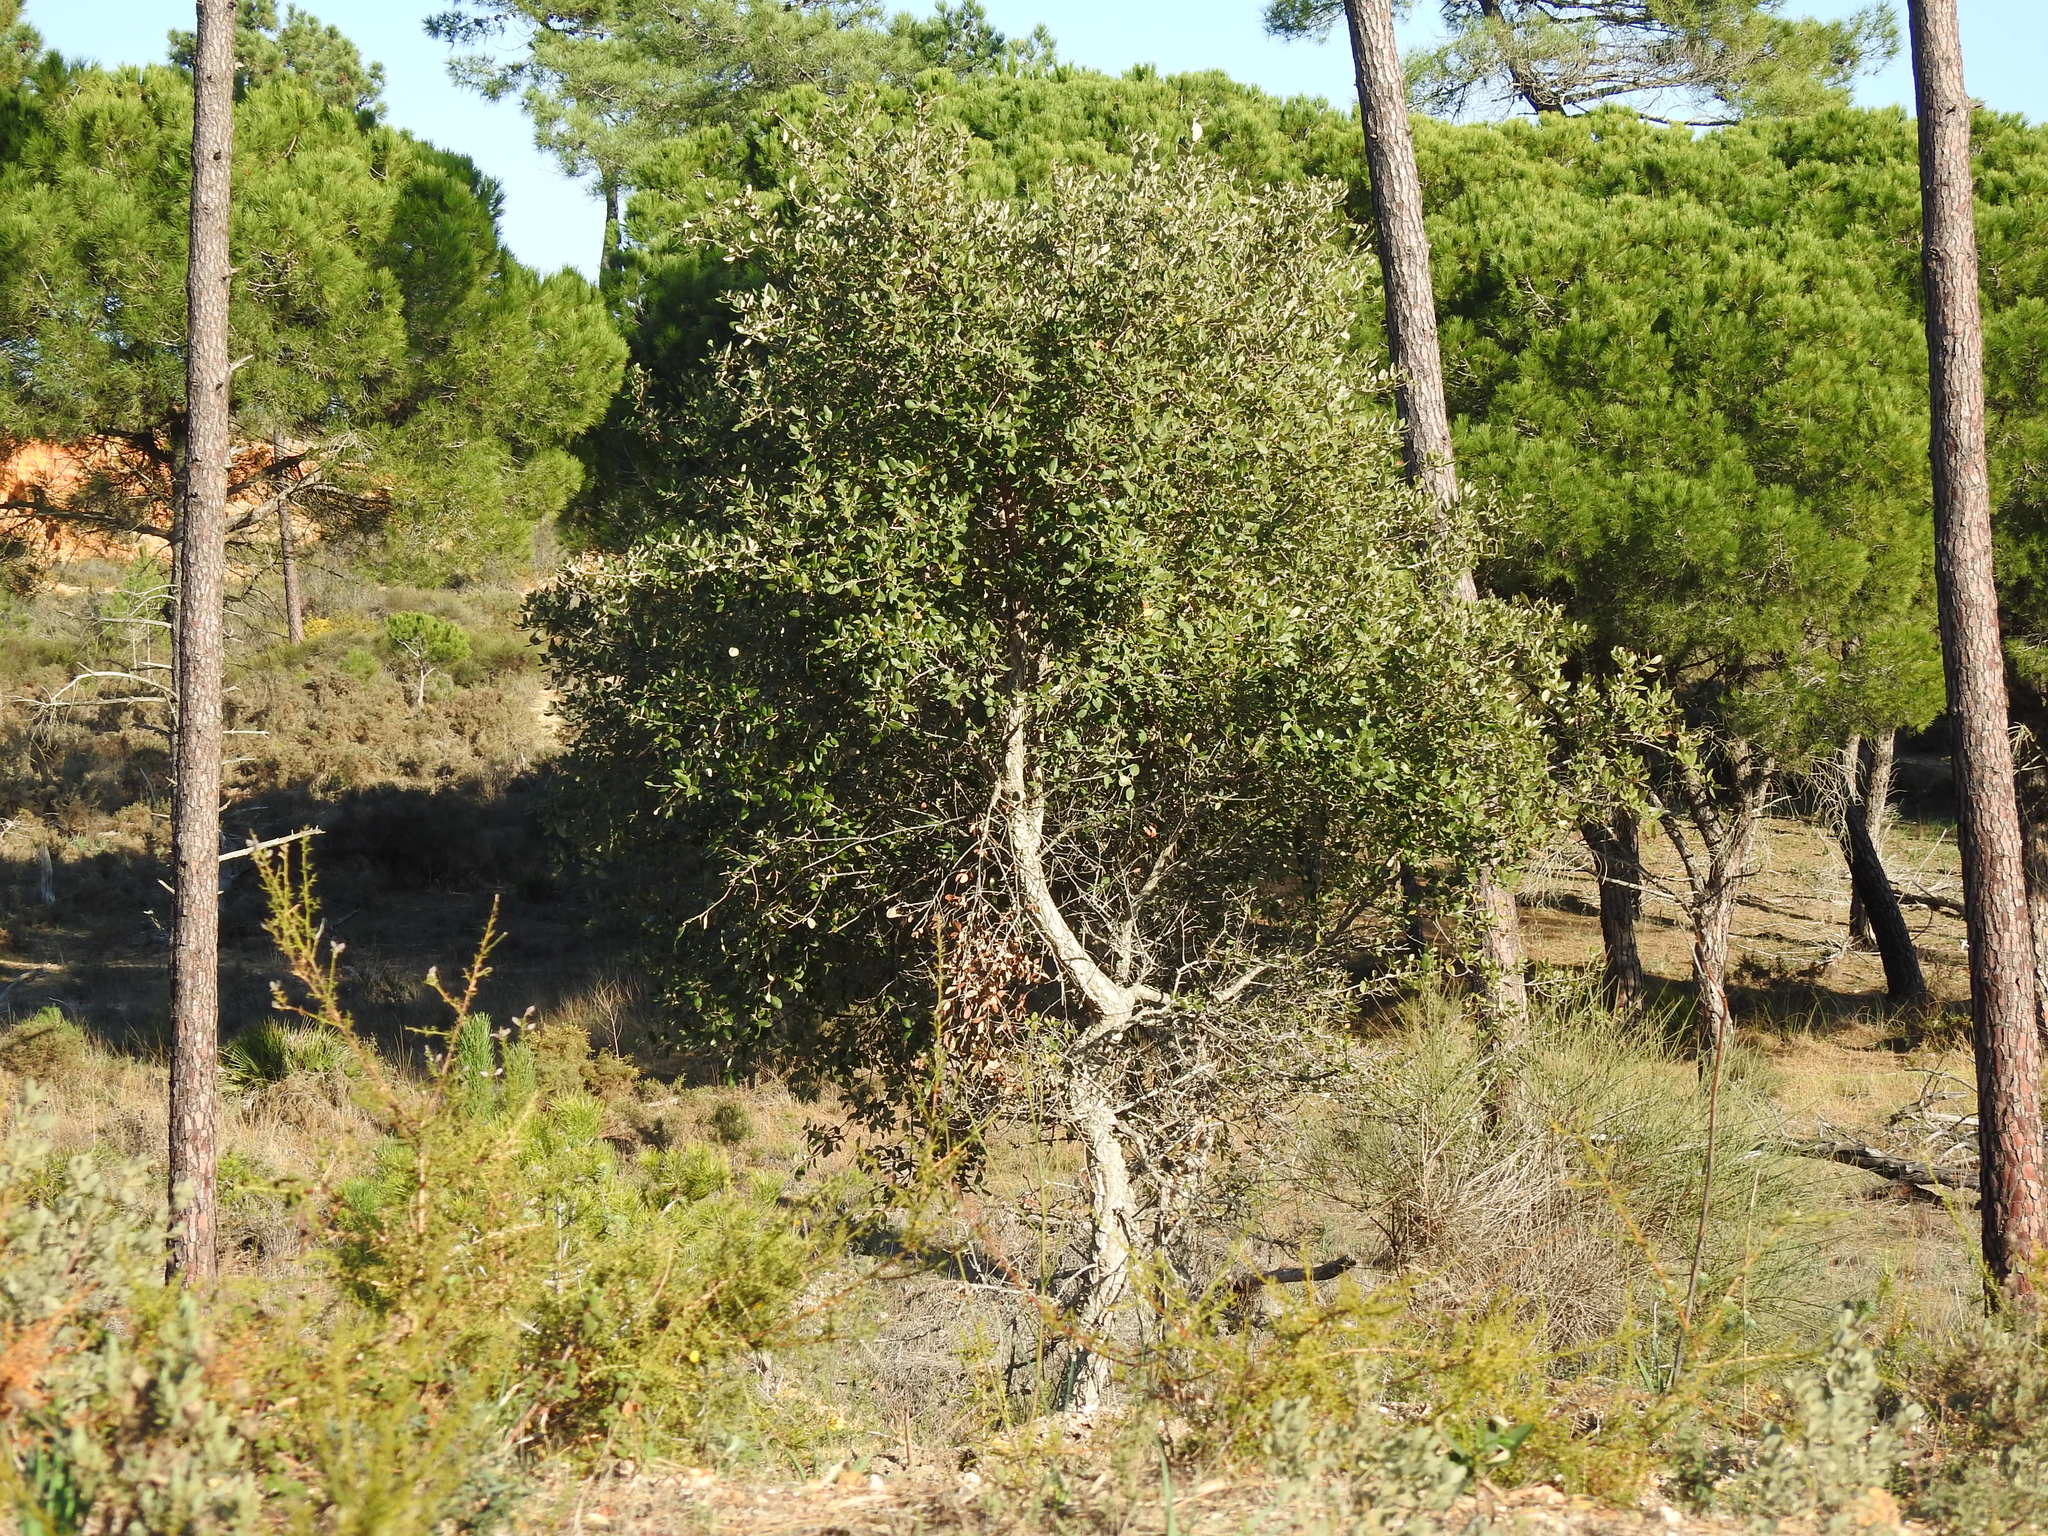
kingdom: Plantae
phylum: Tracheophyta
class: Magnoliopsida
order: Fagales
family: Fagaceae
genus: Quercus
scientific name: Quercus suber
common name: Cork oak
